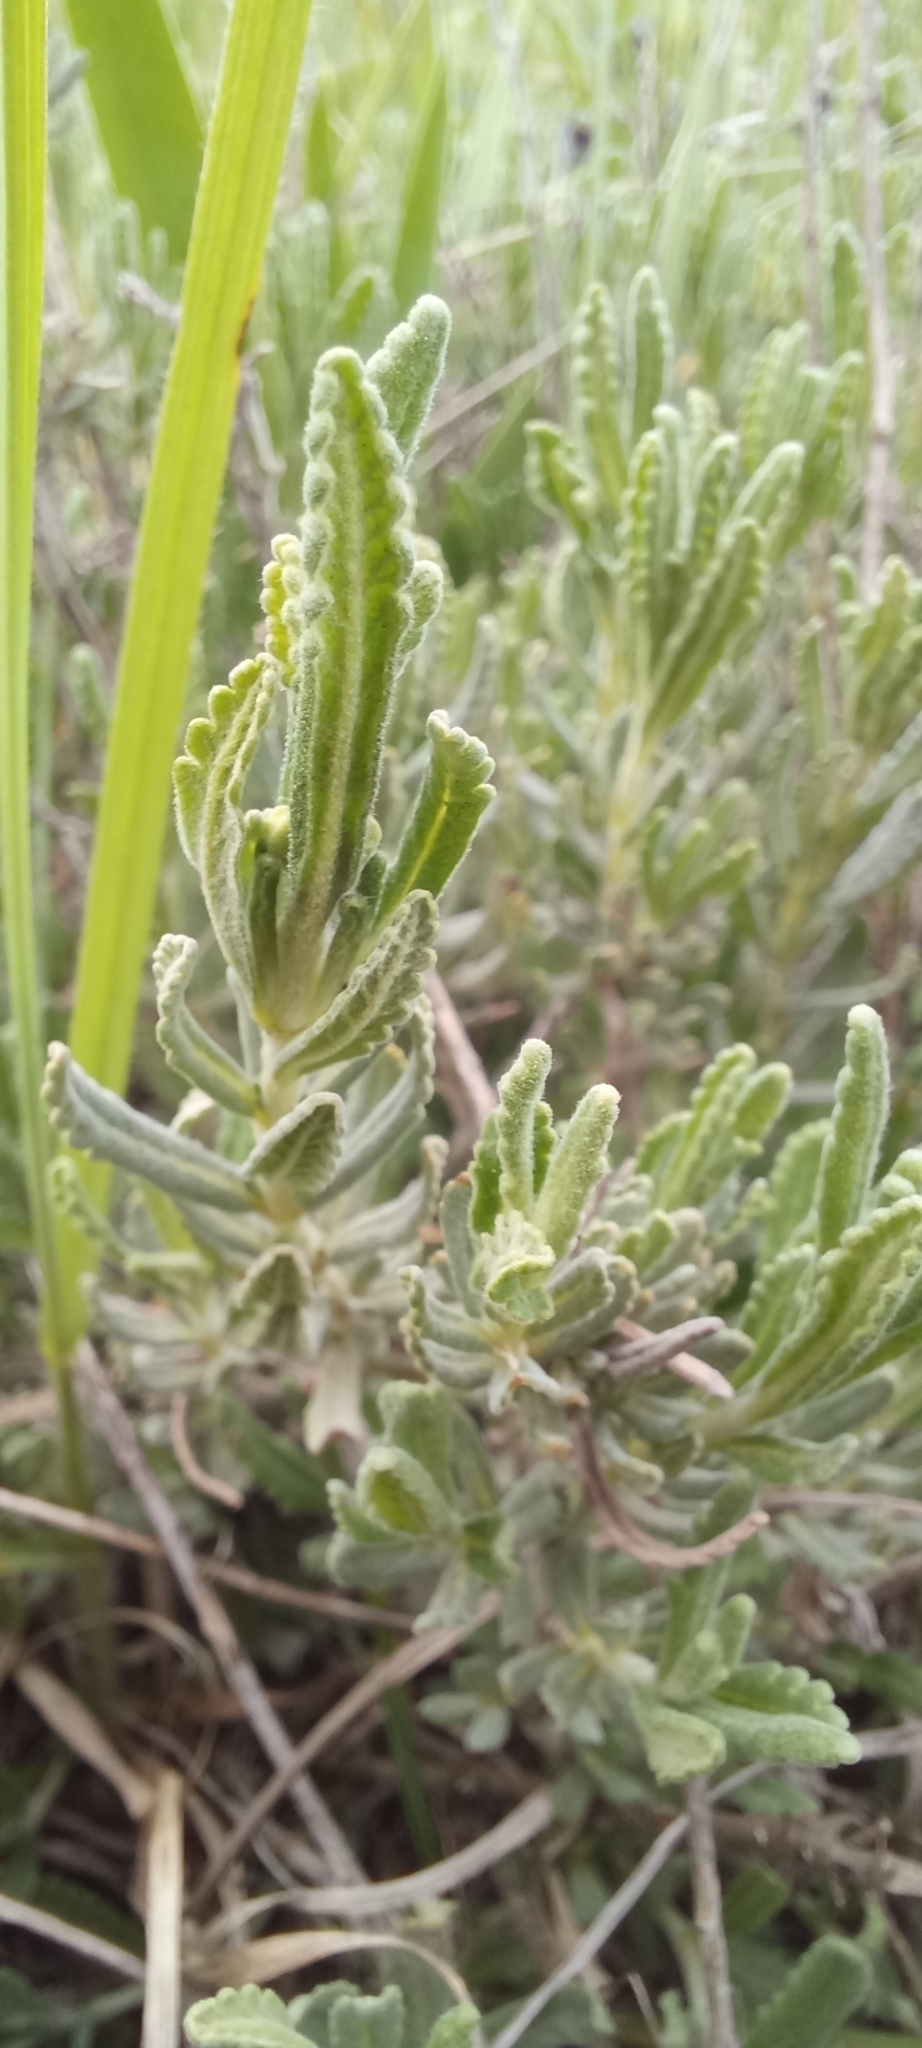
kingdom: Plantae
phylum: Tracheophyta
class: Magnoliopsida
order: Lamiales
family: Lamiaceae
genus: Teucrium
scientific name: Teucrium polium
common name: Poley
